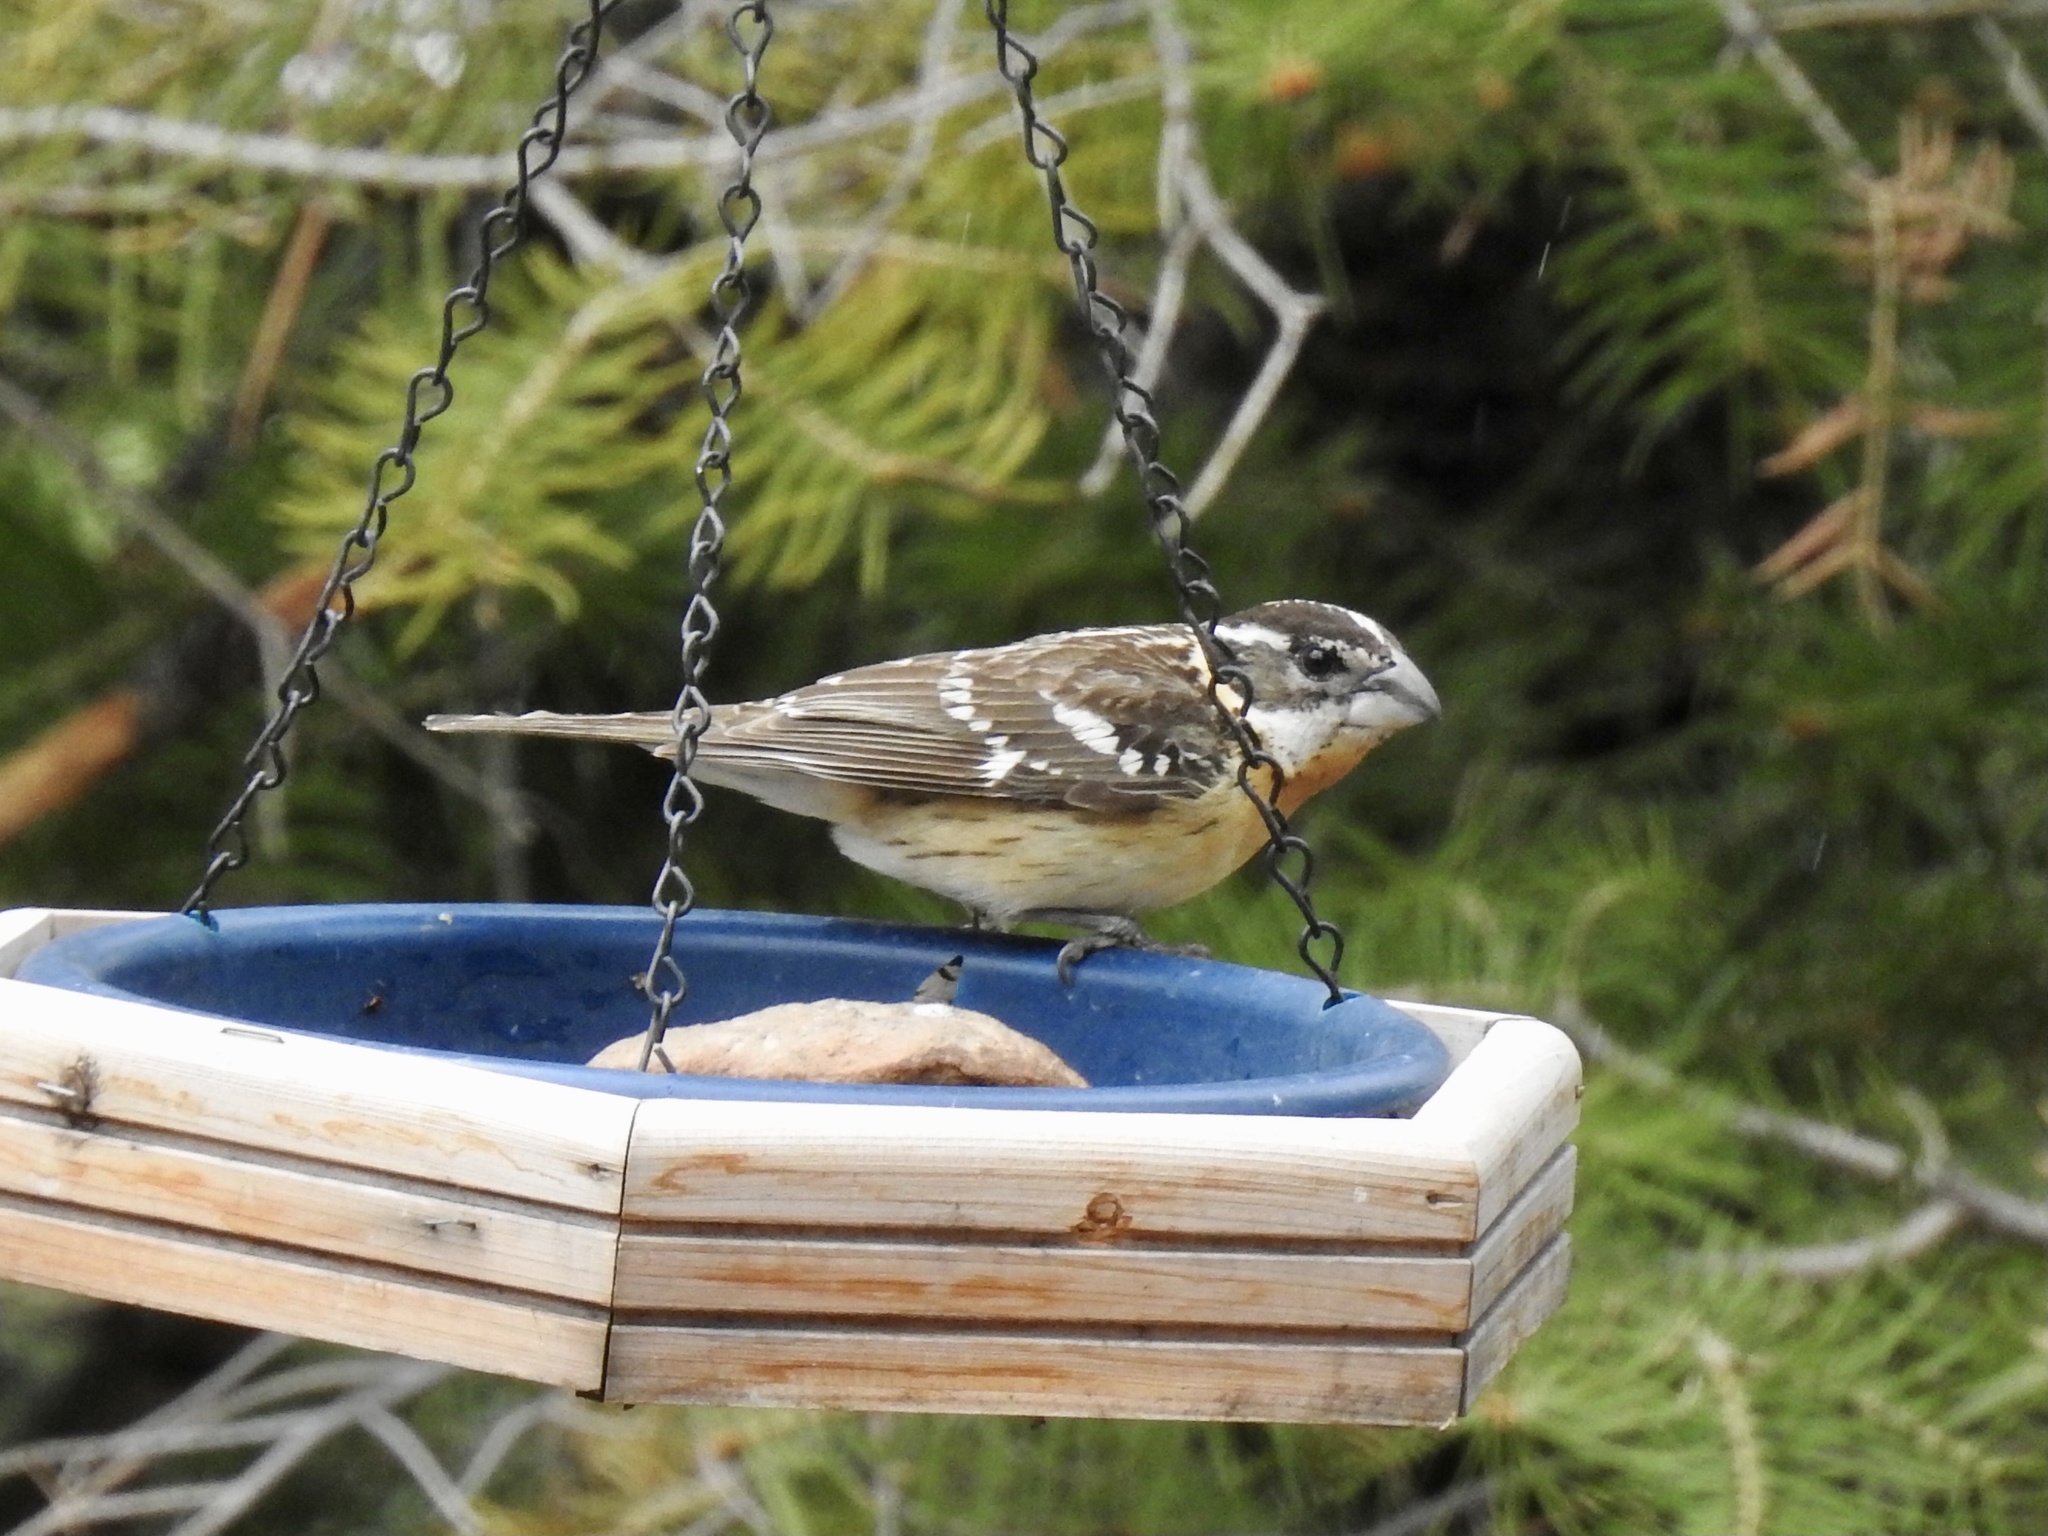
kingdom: Animalia
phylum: Chordata
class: Aves
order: Passeriformes
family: Cardinalidae
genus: Pheucticus
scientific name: Pheucticus melanocephalus
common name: Black-headed grosbeak
